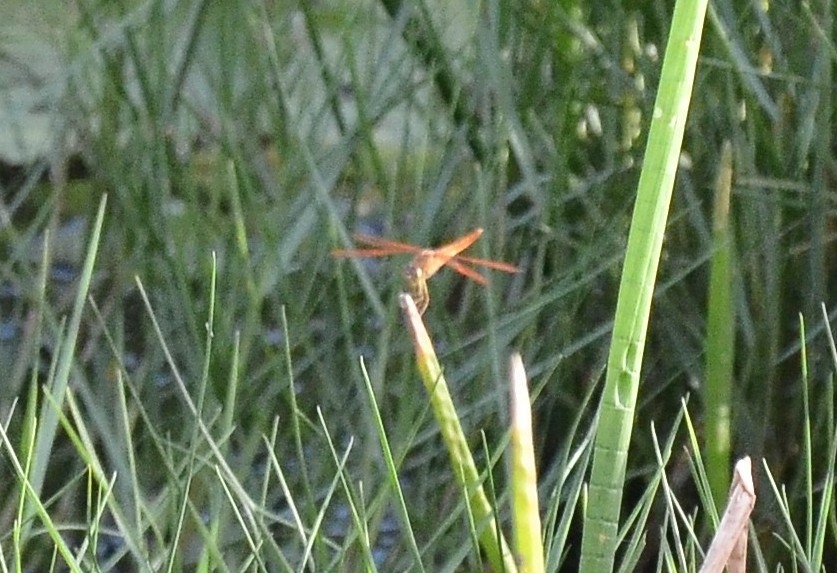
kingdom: Animalia
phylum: Arthropoda
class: Insecta
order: Odonata
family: Libellulidae
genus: Brachythemis
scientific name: Brachythemis contaminata
